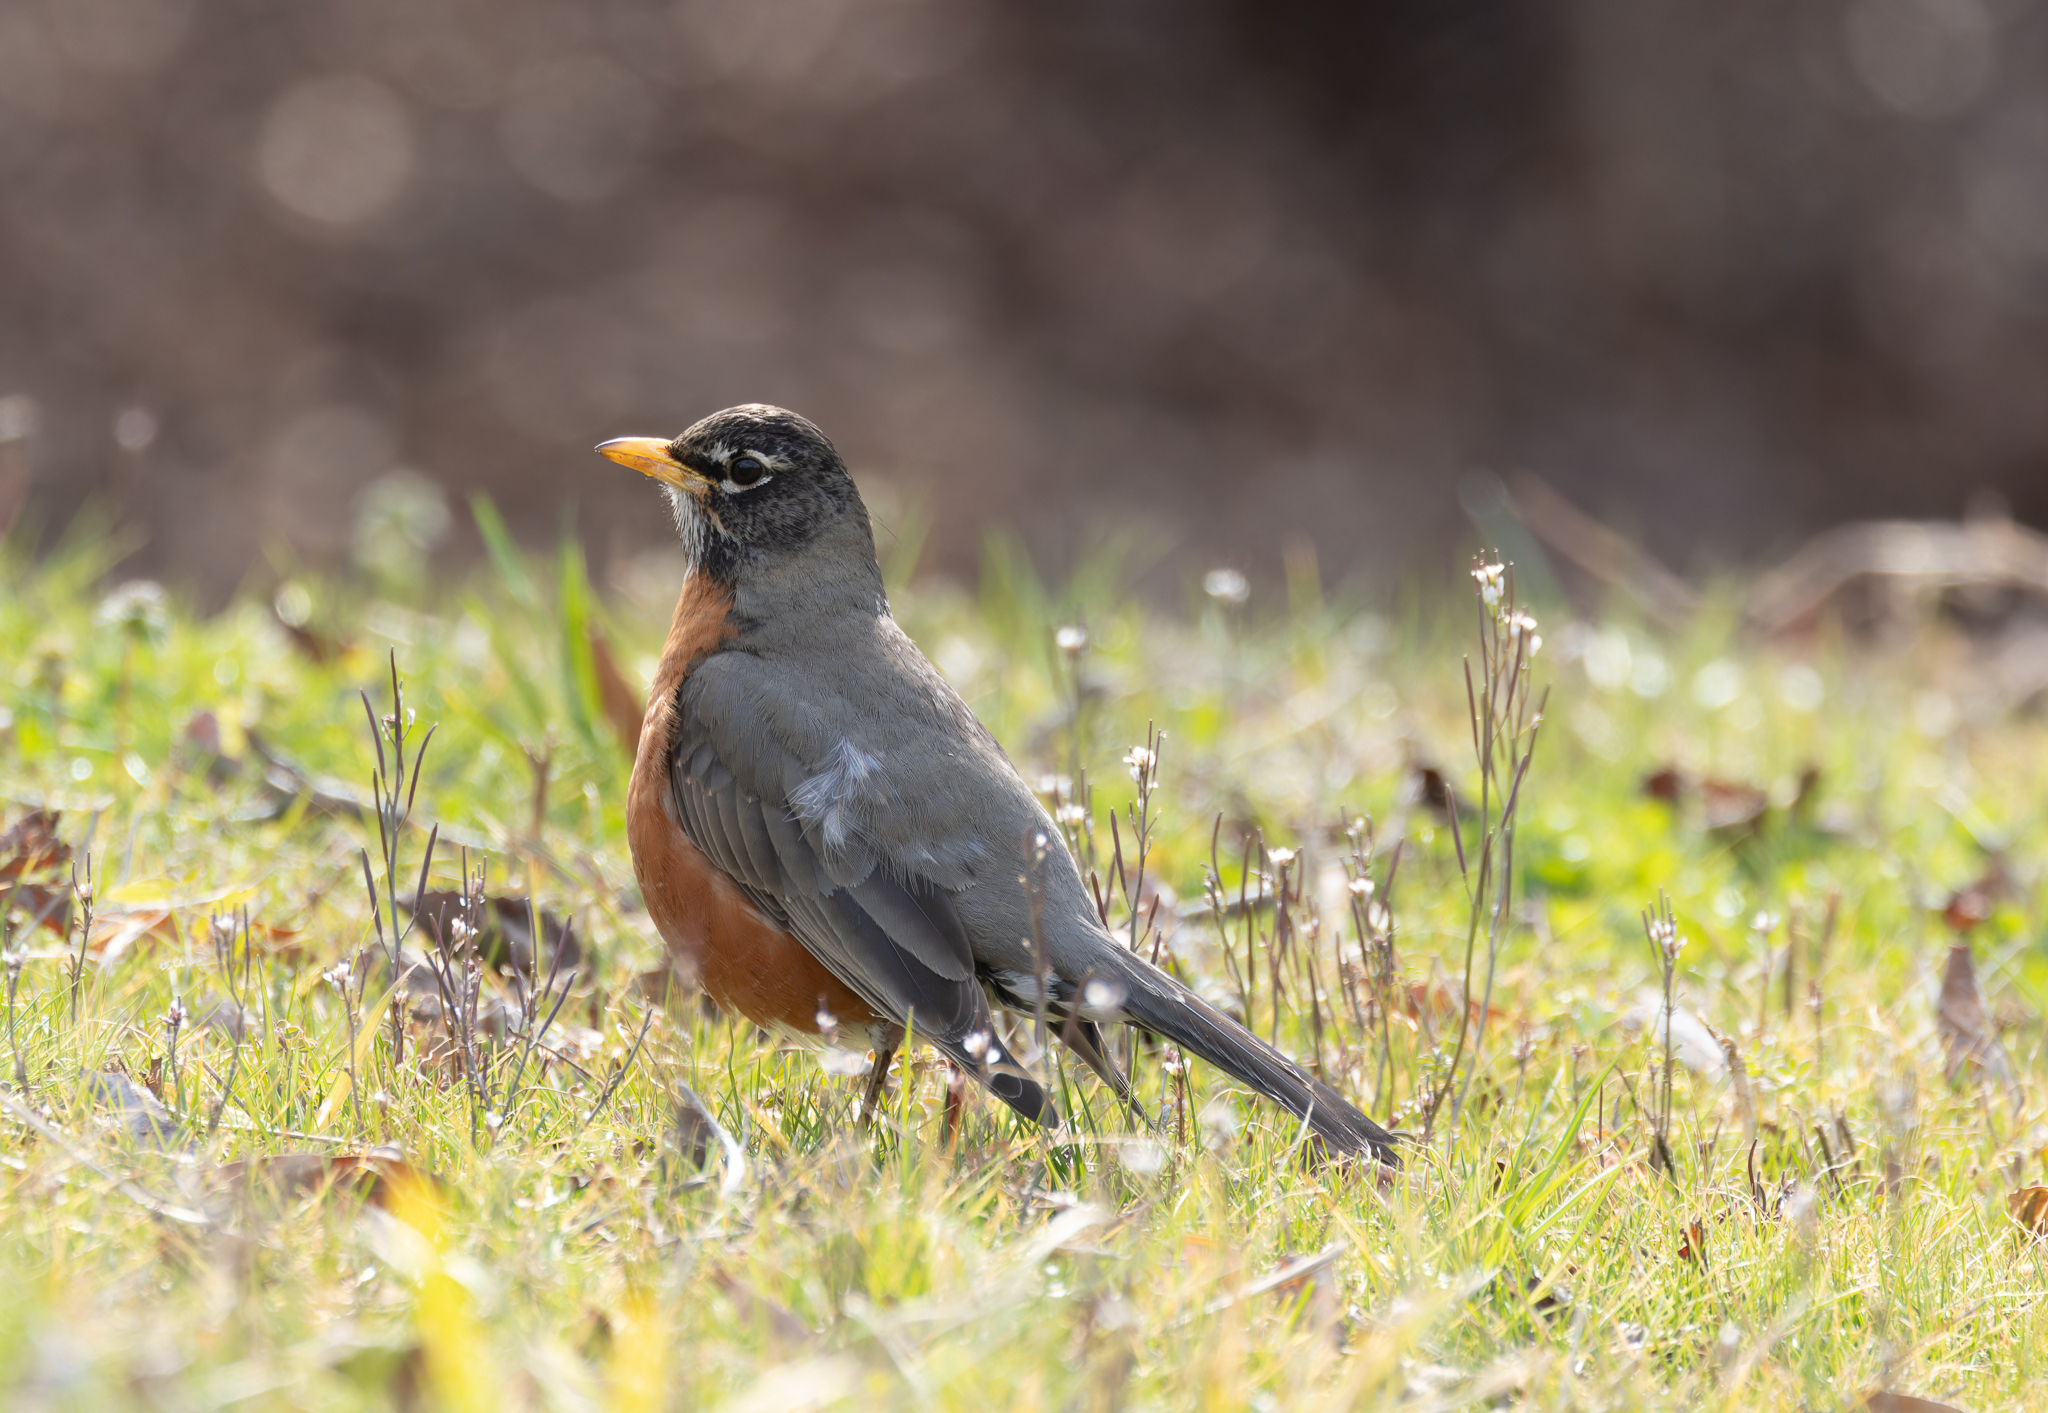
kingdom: Animalia
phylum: Chordata
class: Aves
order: Passeriformes
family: Turdidae
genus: Turdus
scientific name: Turdus migratorius
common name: American robin
